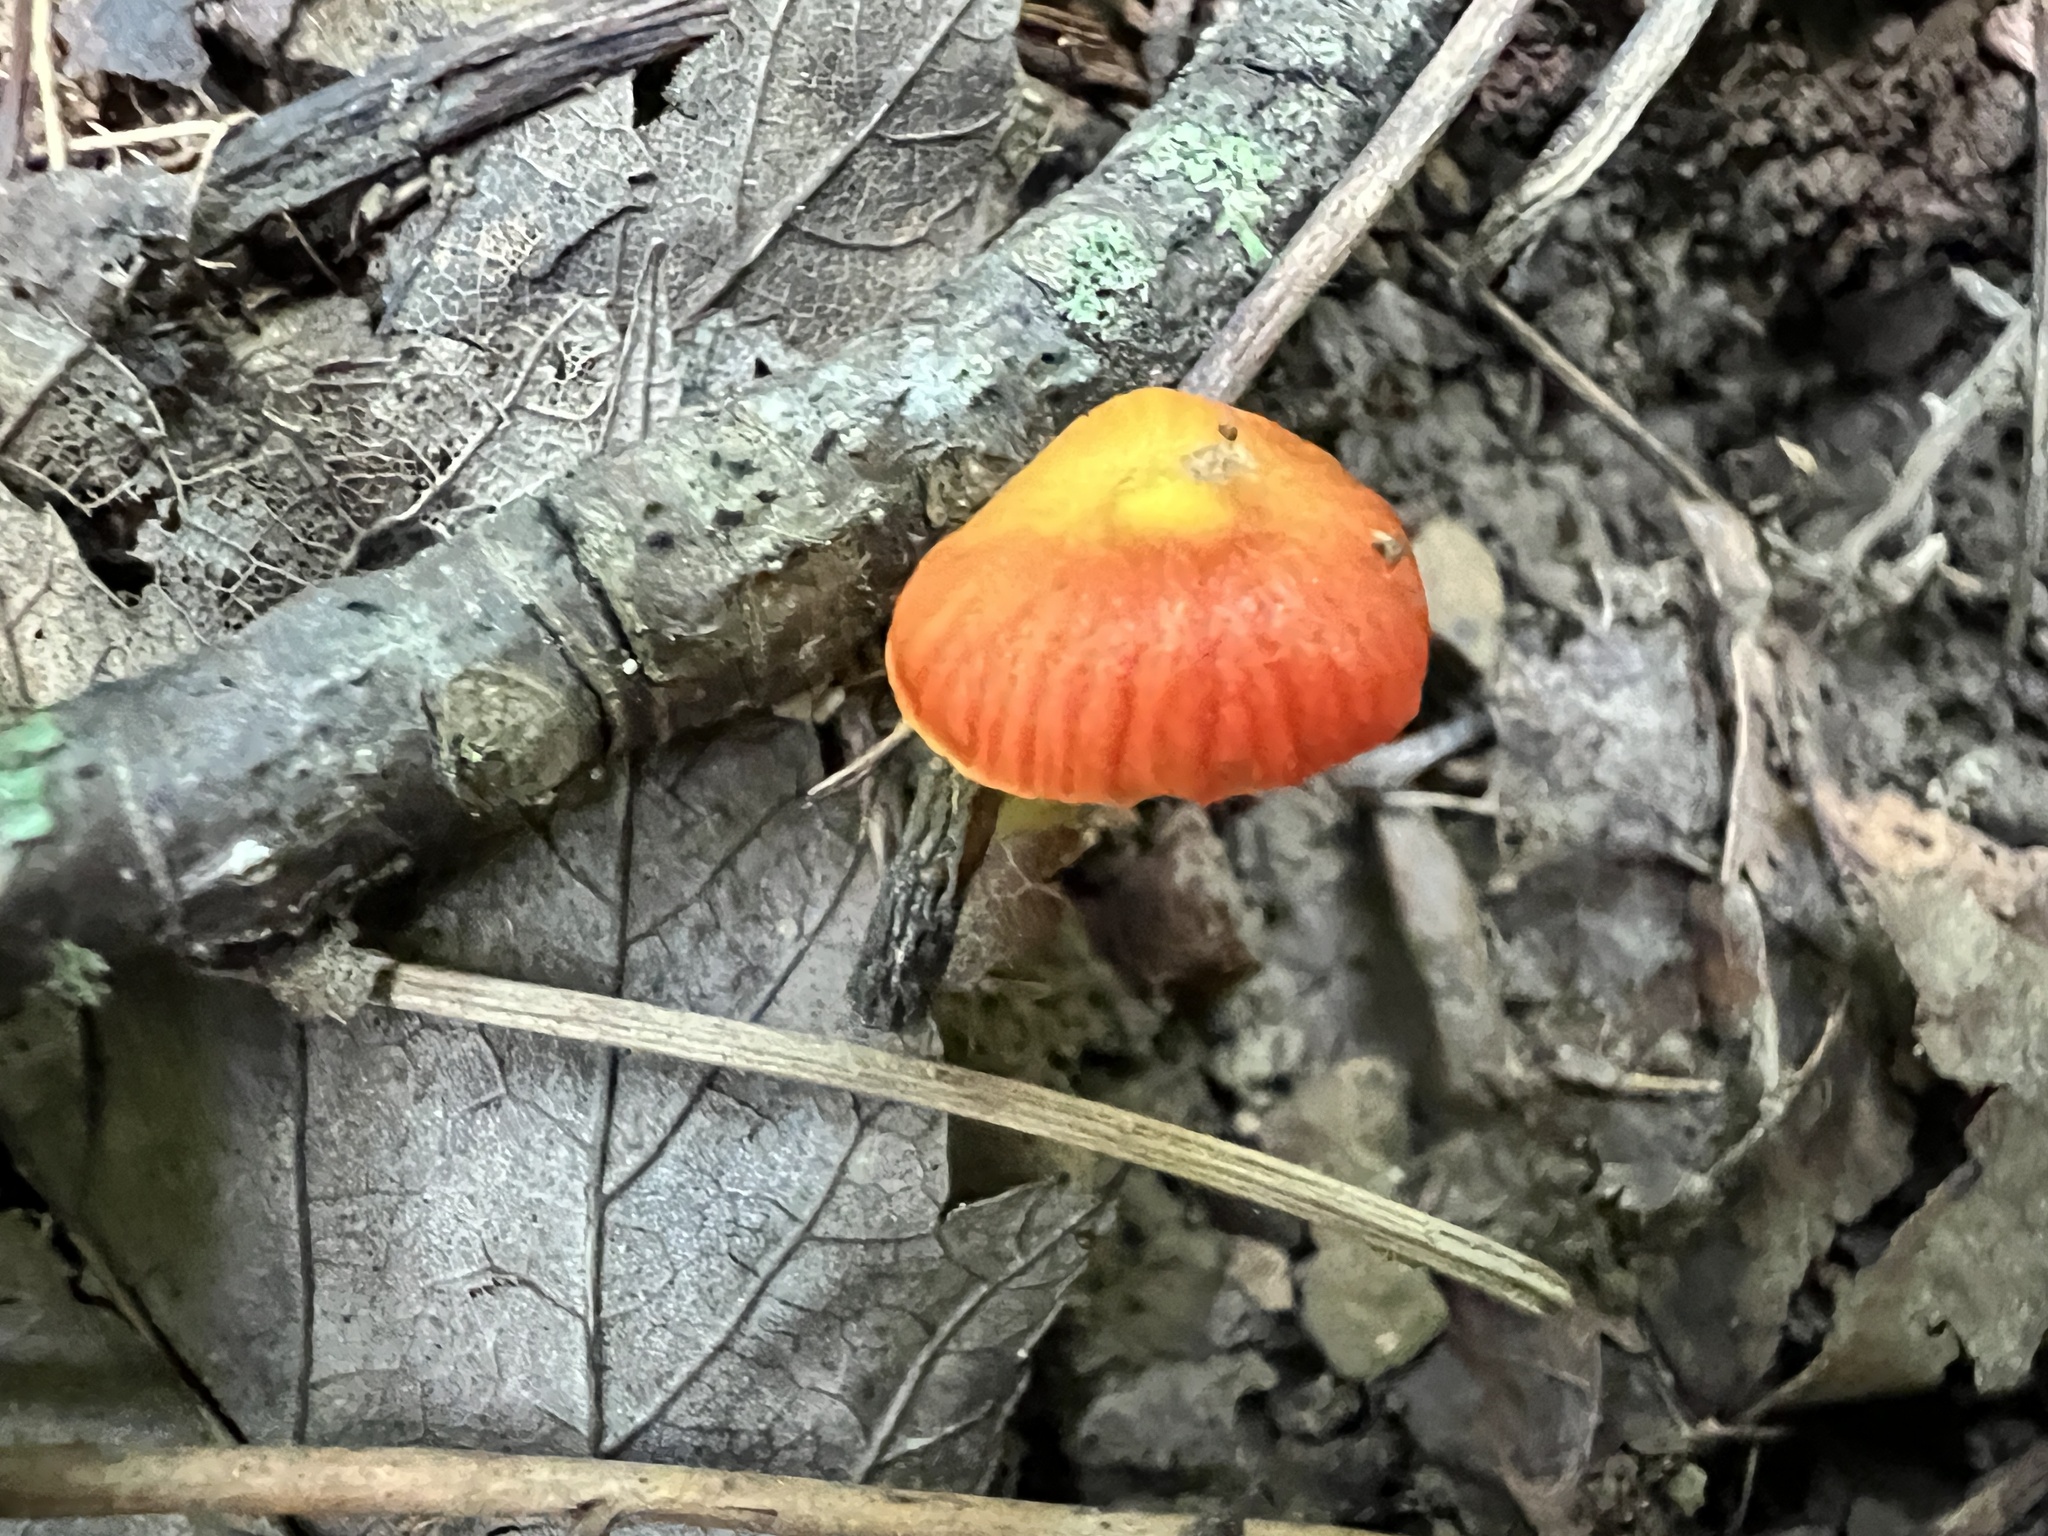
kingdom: Fungi
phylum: Basidiomycota
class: Agaricomycetes
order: Agaricales
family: Hygrophoraceae
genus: Hygrocybe
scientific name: Hygrocybe glutinipes
